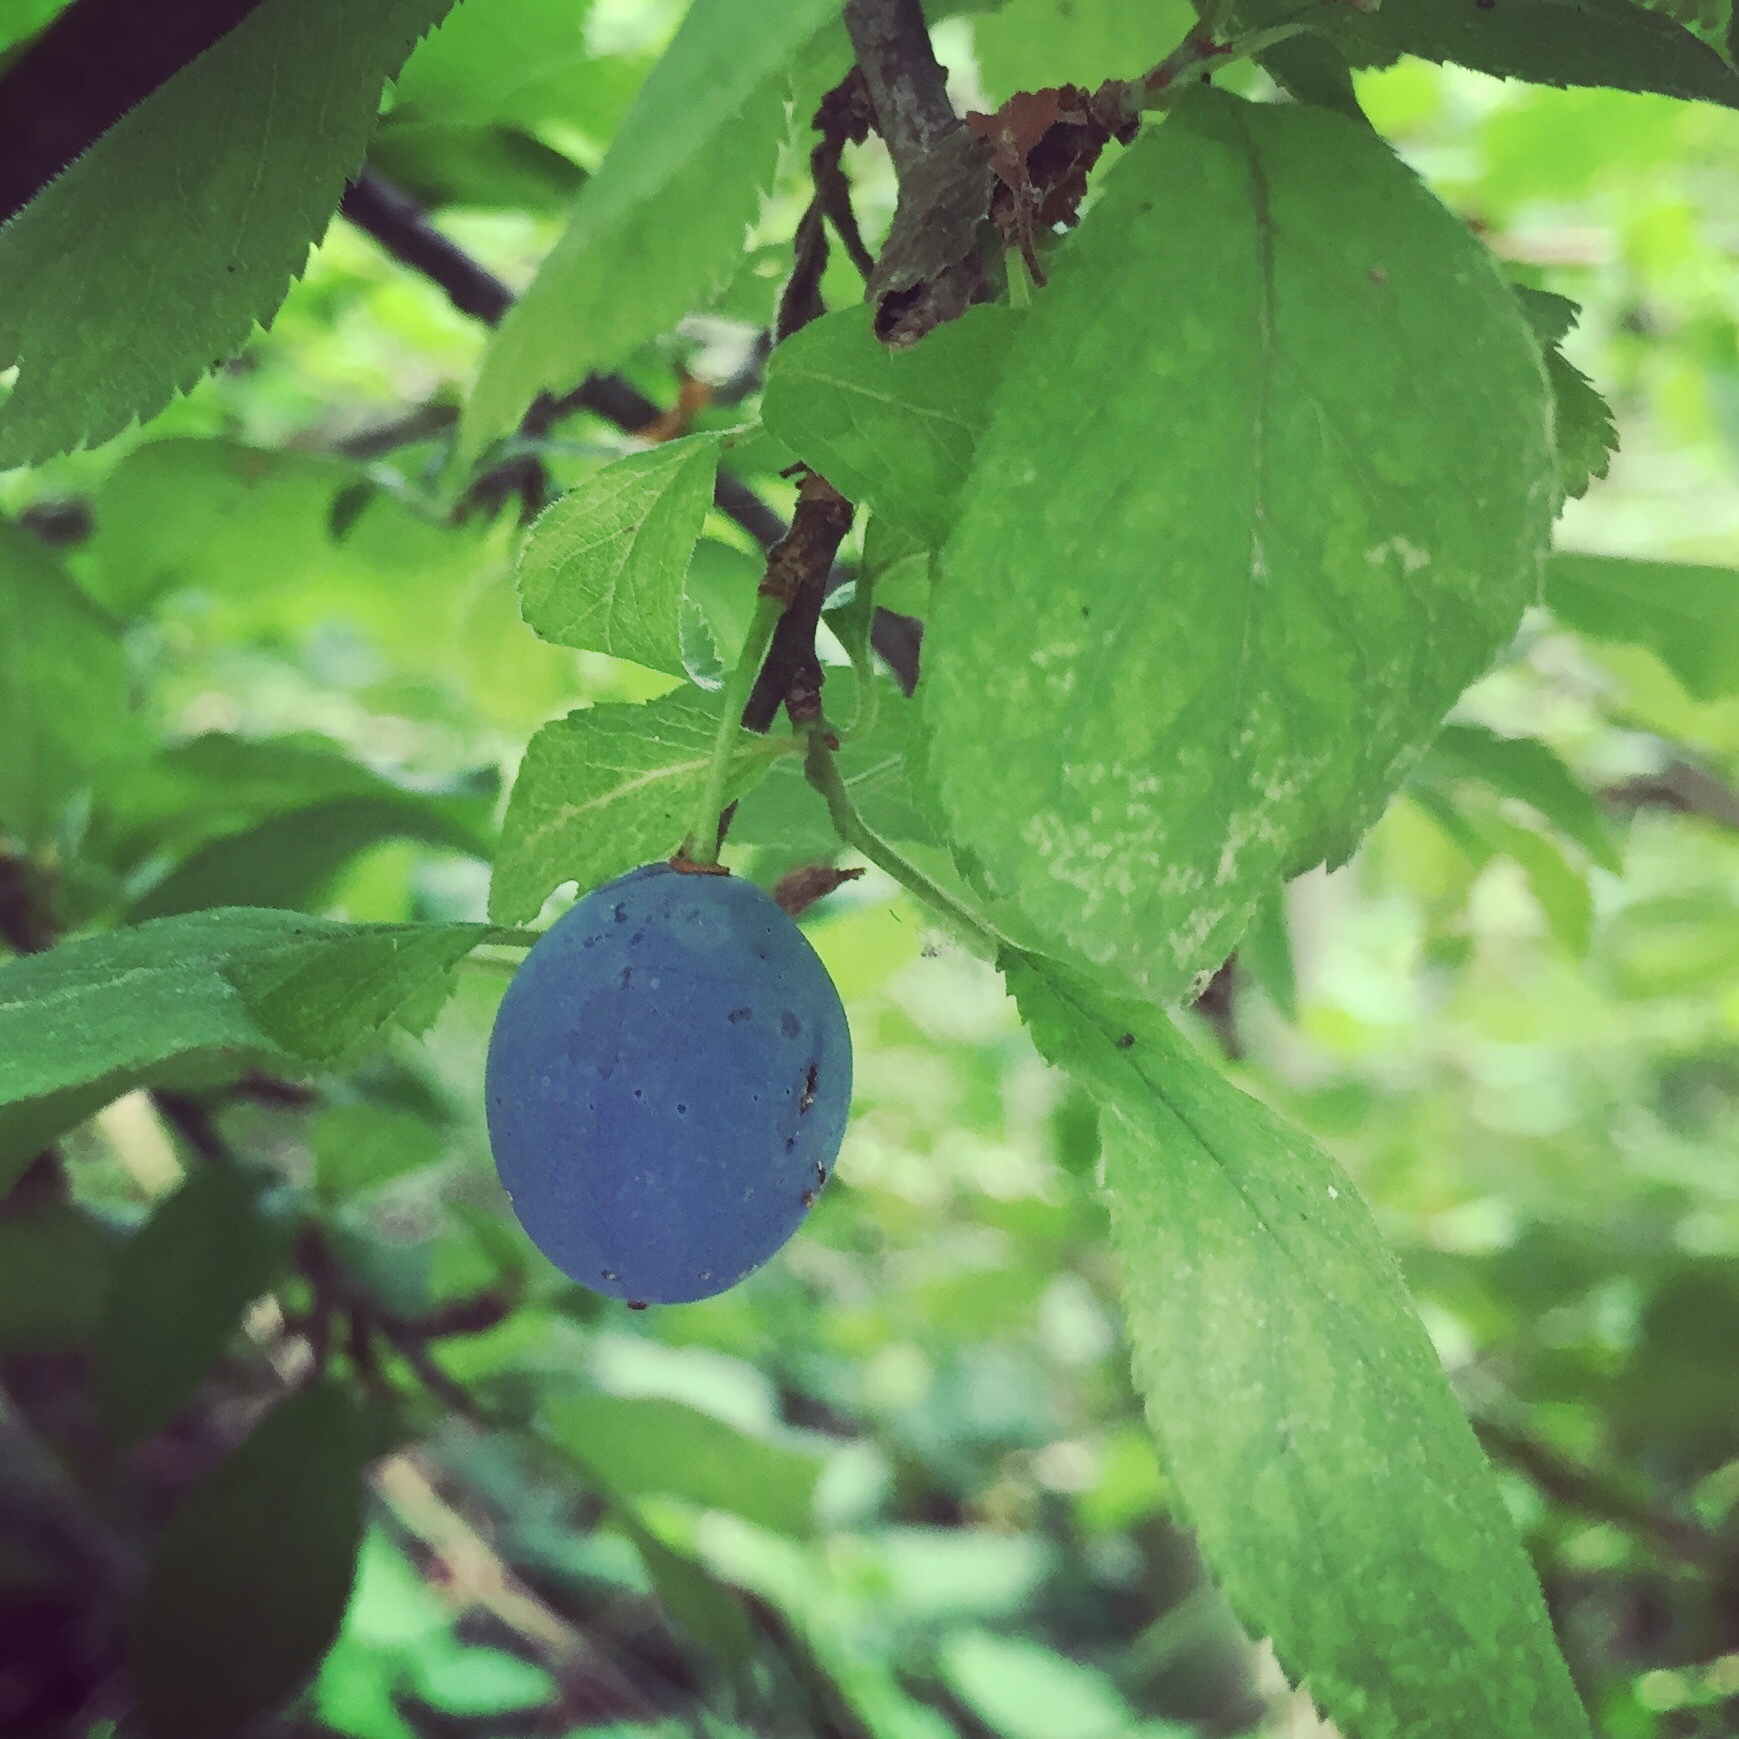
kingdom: Plantae
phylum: Tracheophyta
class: Magnoliopsida
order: Rosales
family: Rosaceae
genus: Prunus
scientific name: Prunus spinosa
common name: Blackthorn
